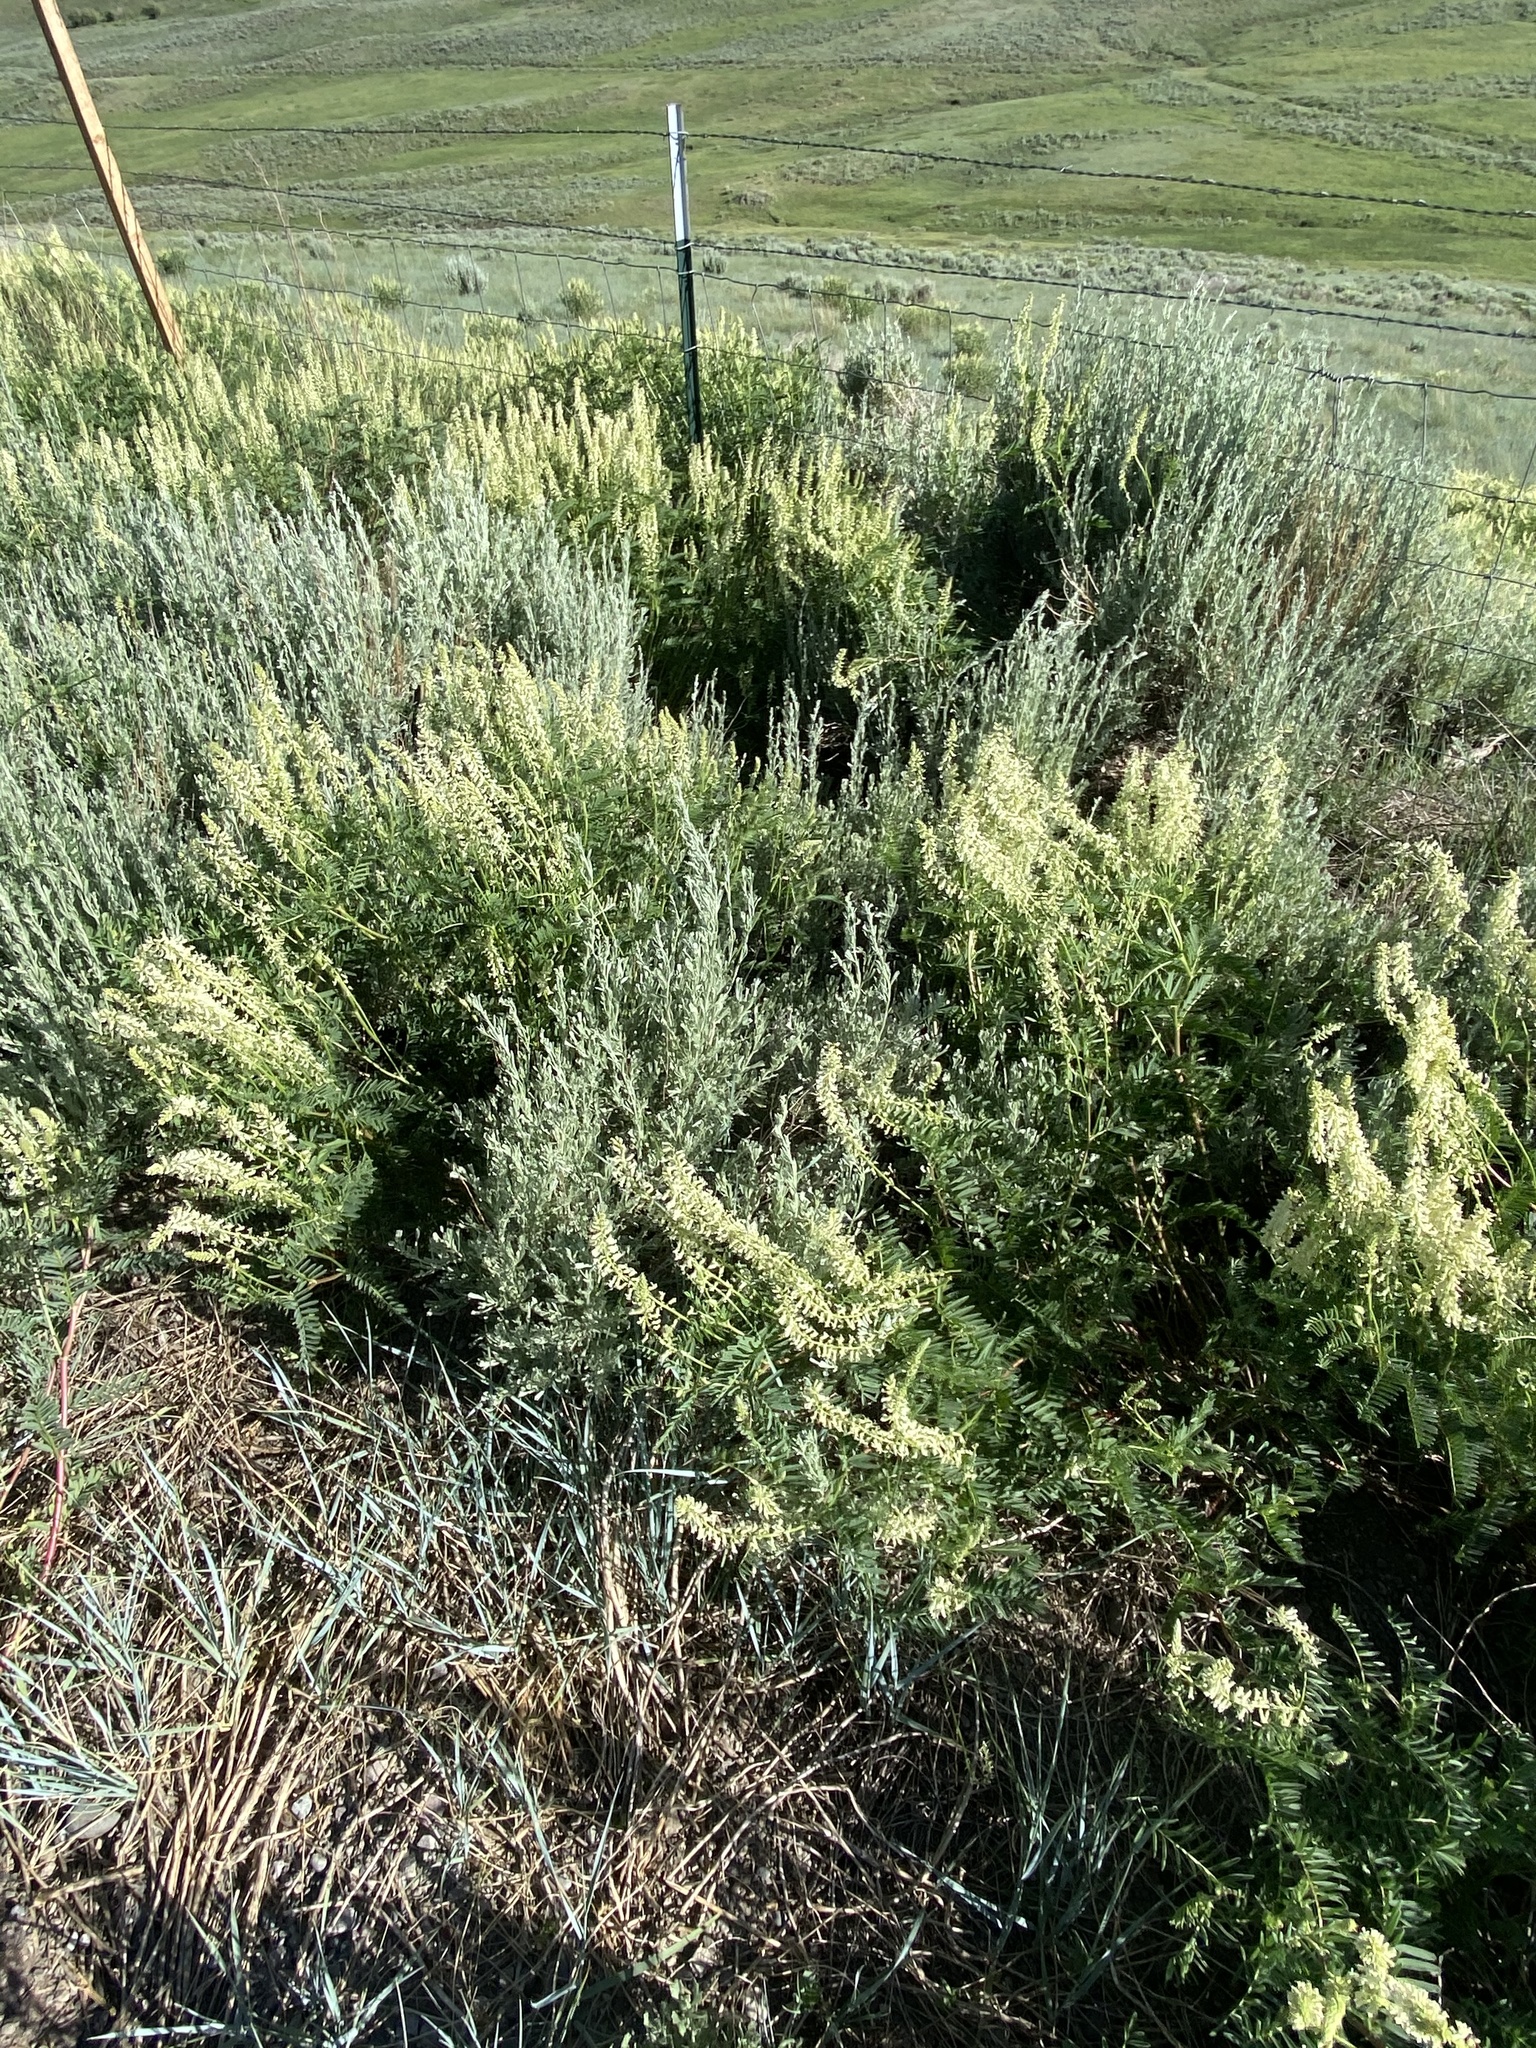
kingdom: Plantae
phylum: Tracheophyta
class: Magnoliopsida
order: Fabales
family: Fabaceae
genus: Astragalus
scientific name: Astragalus bisulcatus
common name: Two-groove milk-vetch
